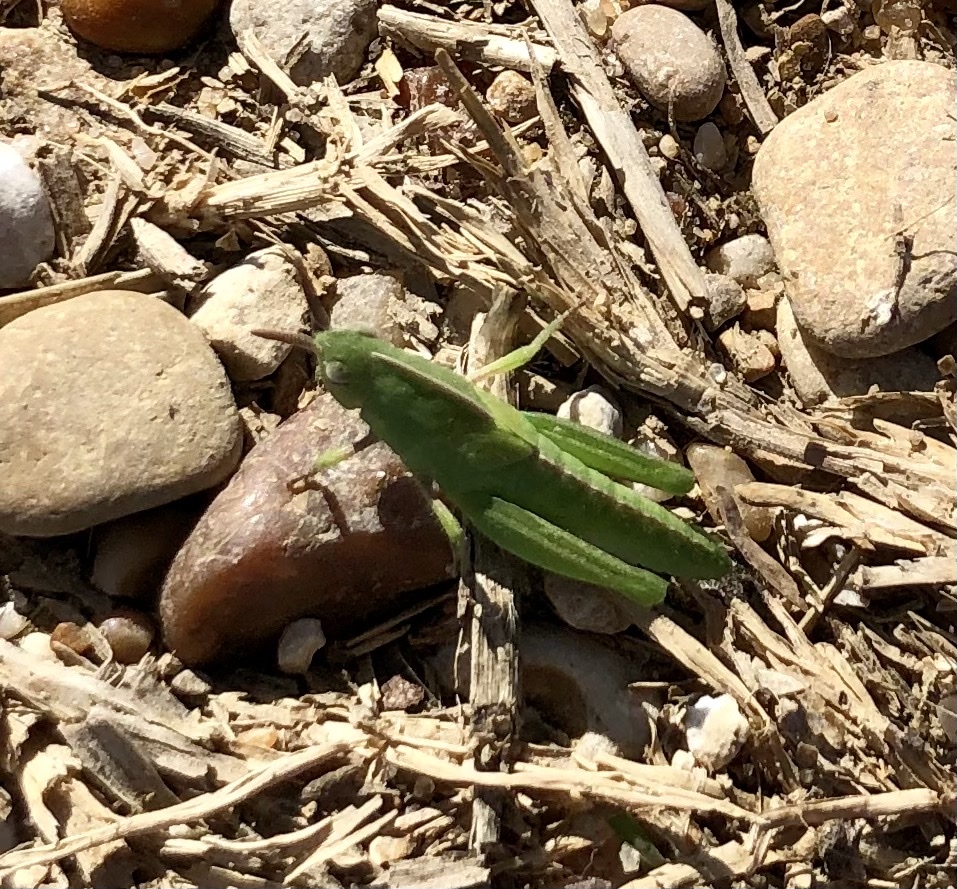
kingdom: Animalia
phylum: Arthropoda
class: Insecta
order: Orthoptera
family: Acrididae
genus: Chortophaga
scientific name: Chortophaga viridifasciata
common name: Green-striped grasshopper
